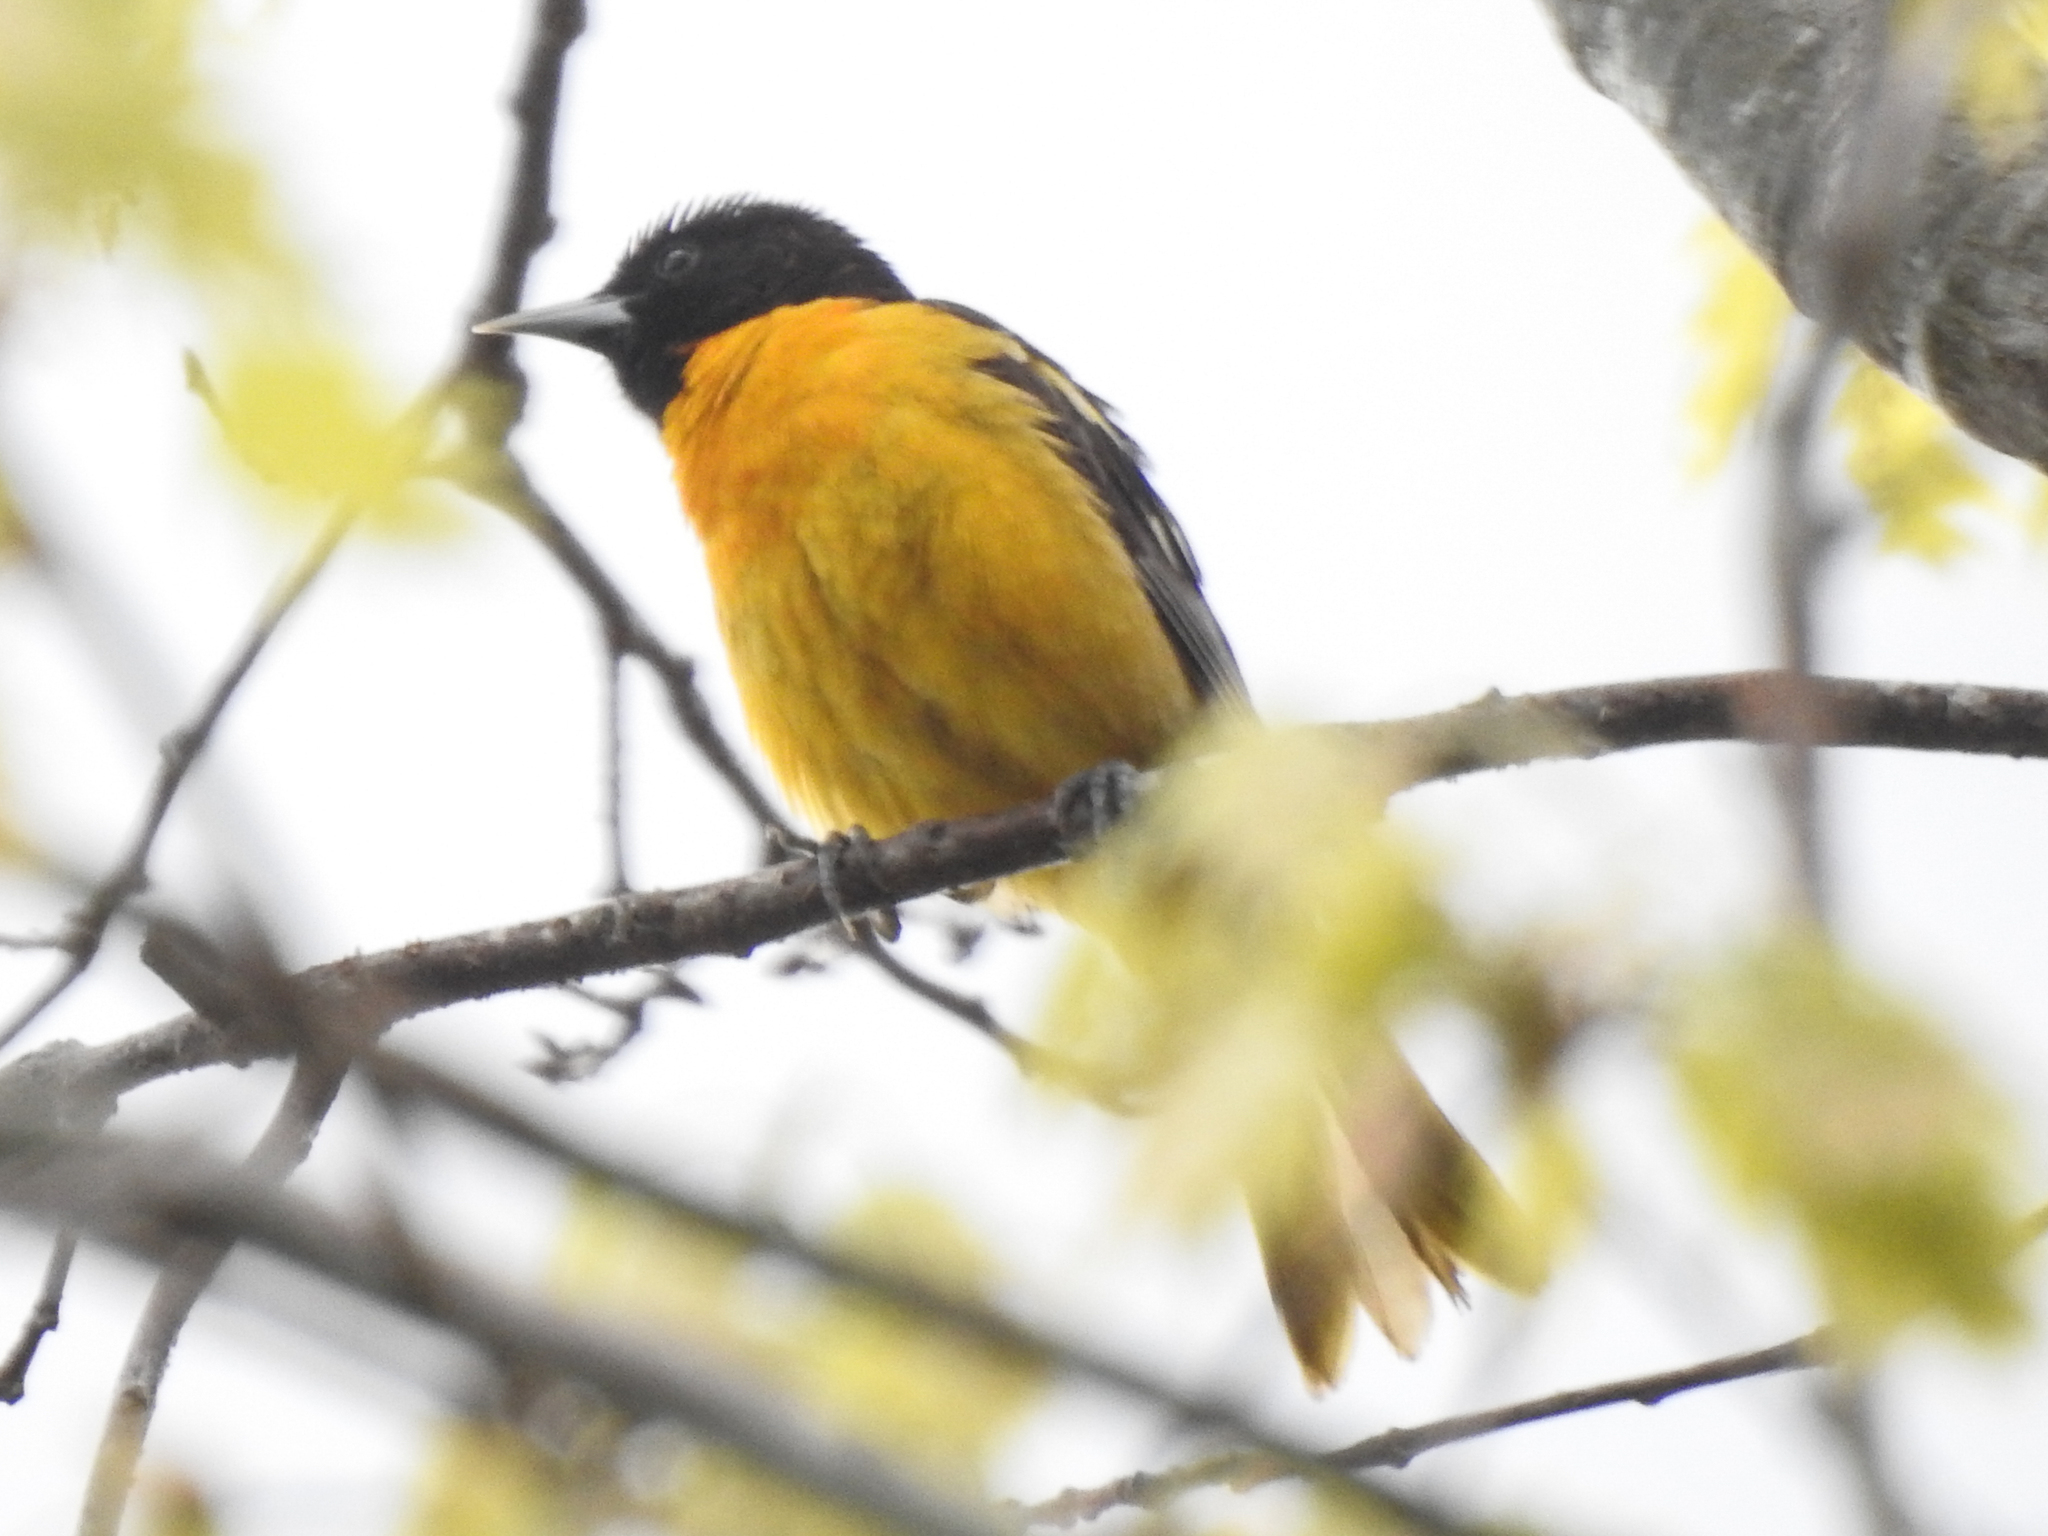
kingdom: Animalia
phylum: Chordata
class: Aves
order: Passeriformes
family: Icteridae
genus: Icterus
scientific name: Icterus galbula
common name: Baltimore oriole
